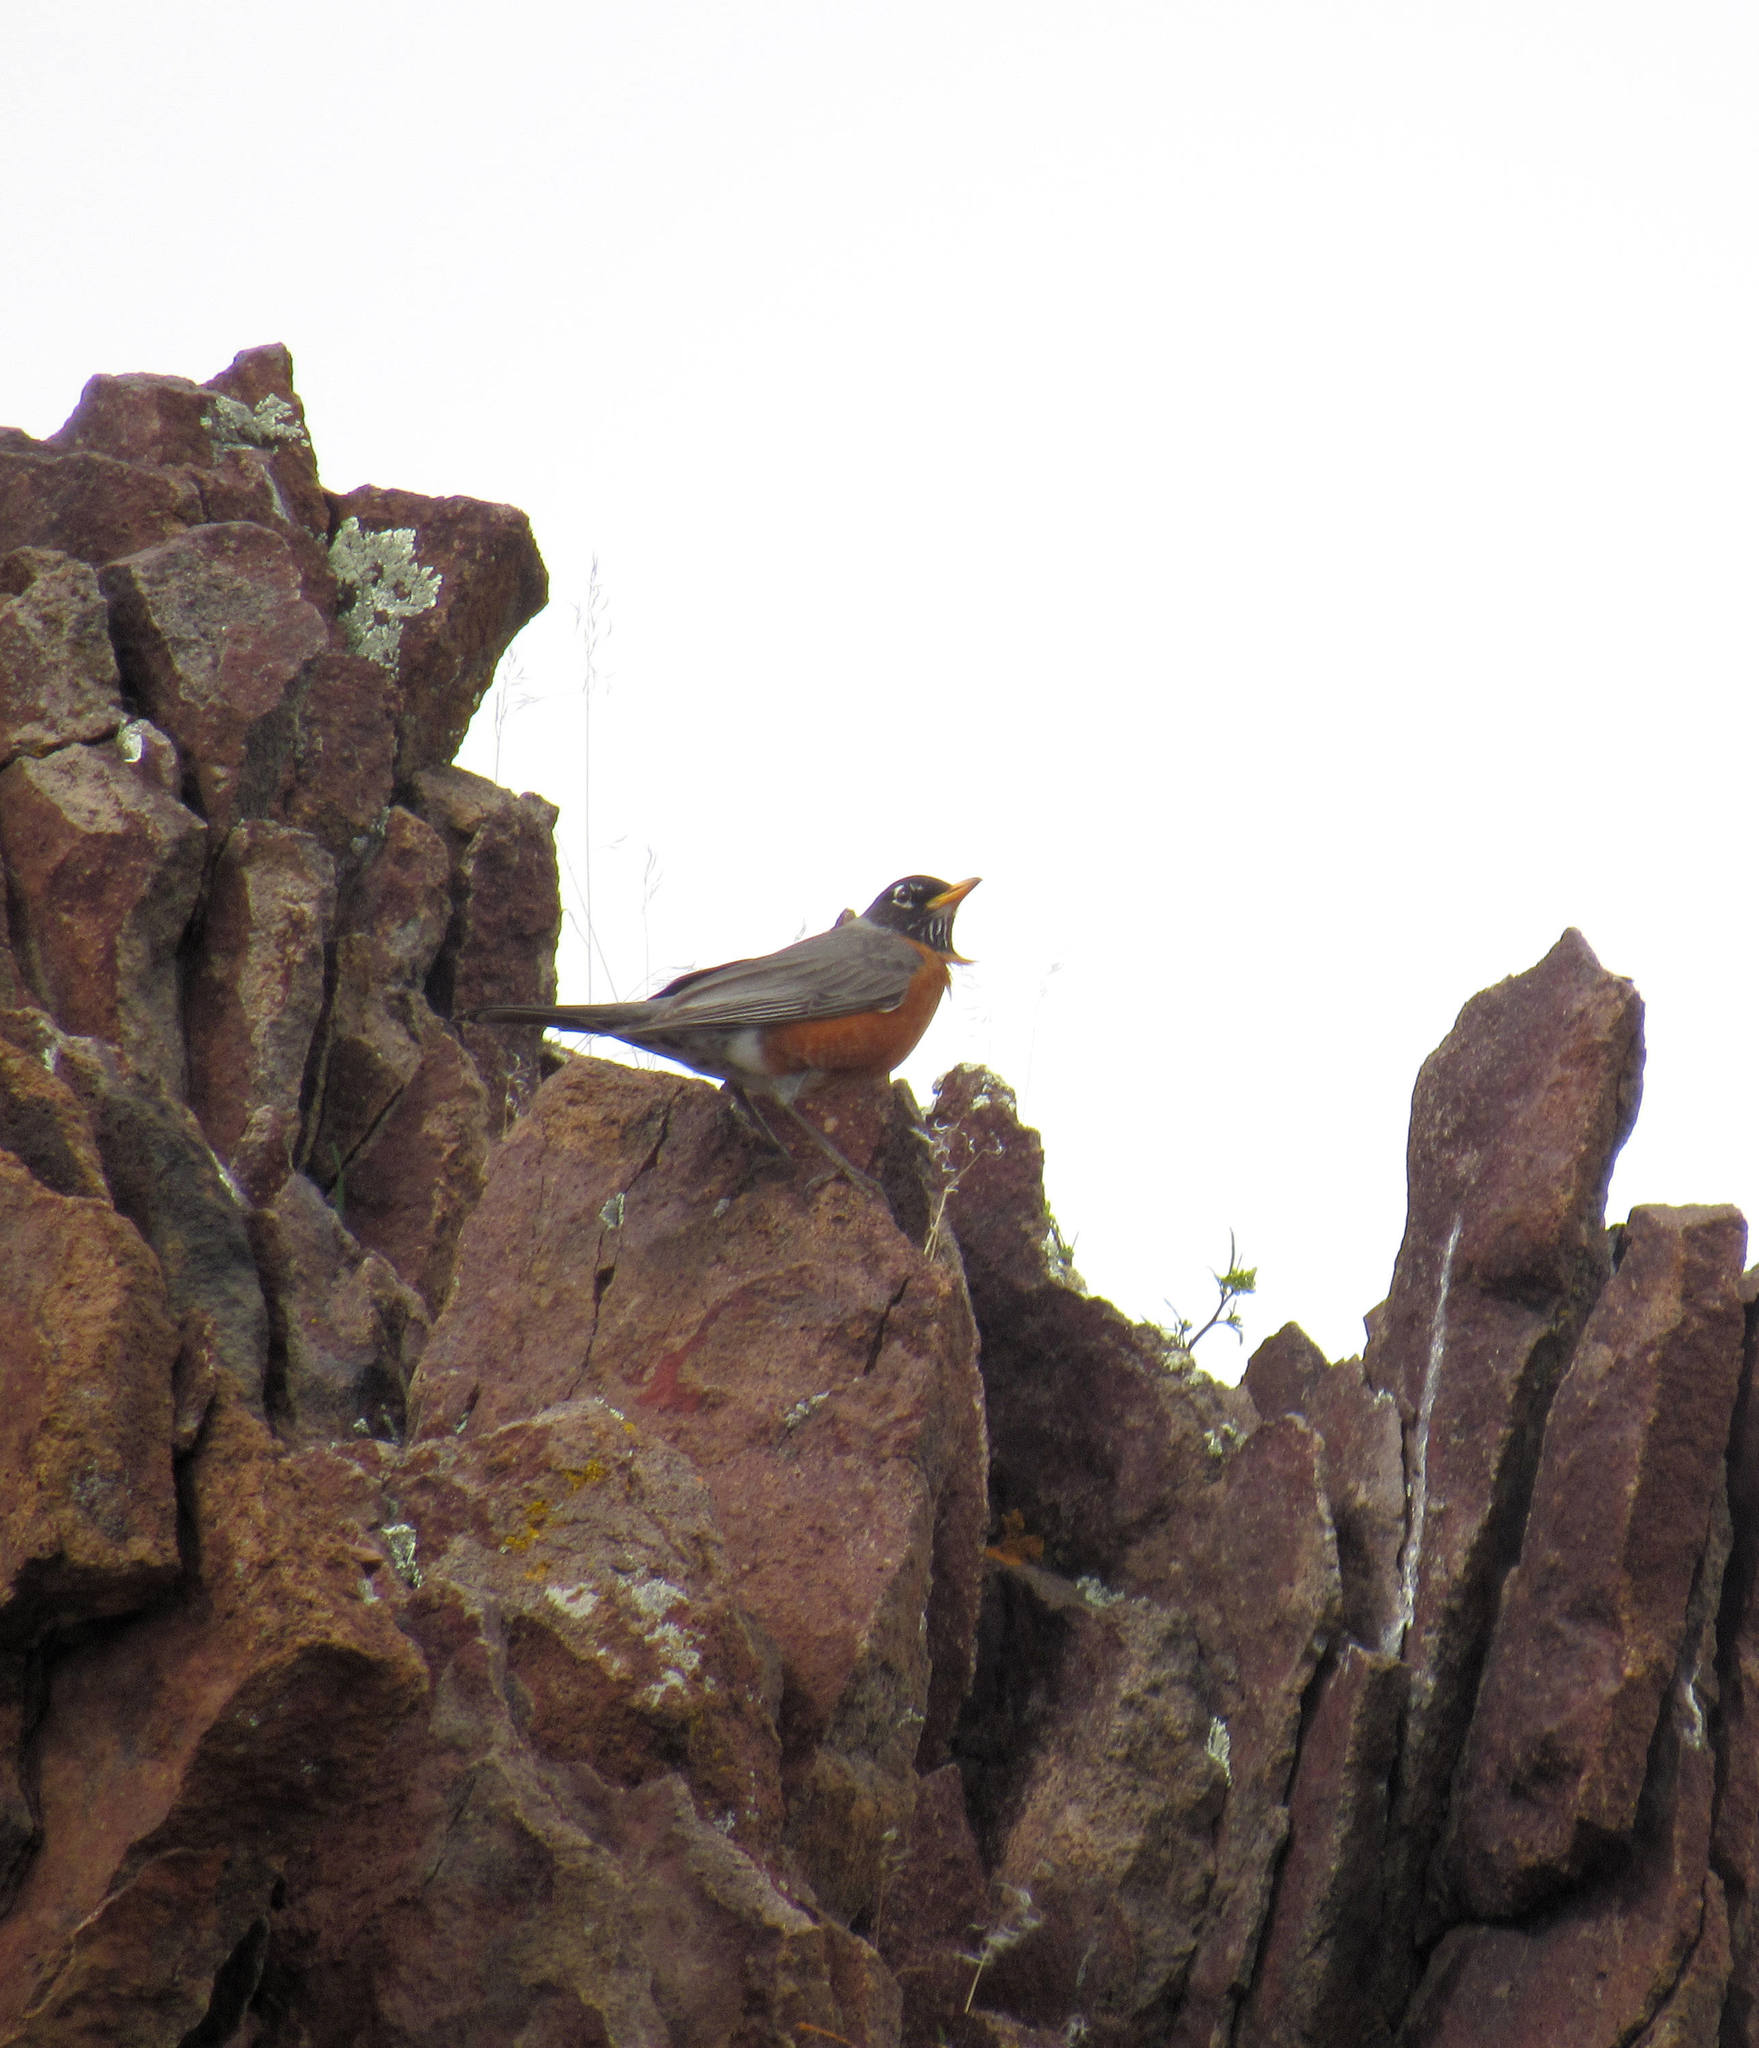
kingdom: Animalia
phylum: Chordata
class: Aves
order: Passeriformes
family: Turdidae
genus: Turdus
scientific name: Turdus migratorius
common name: American robin
